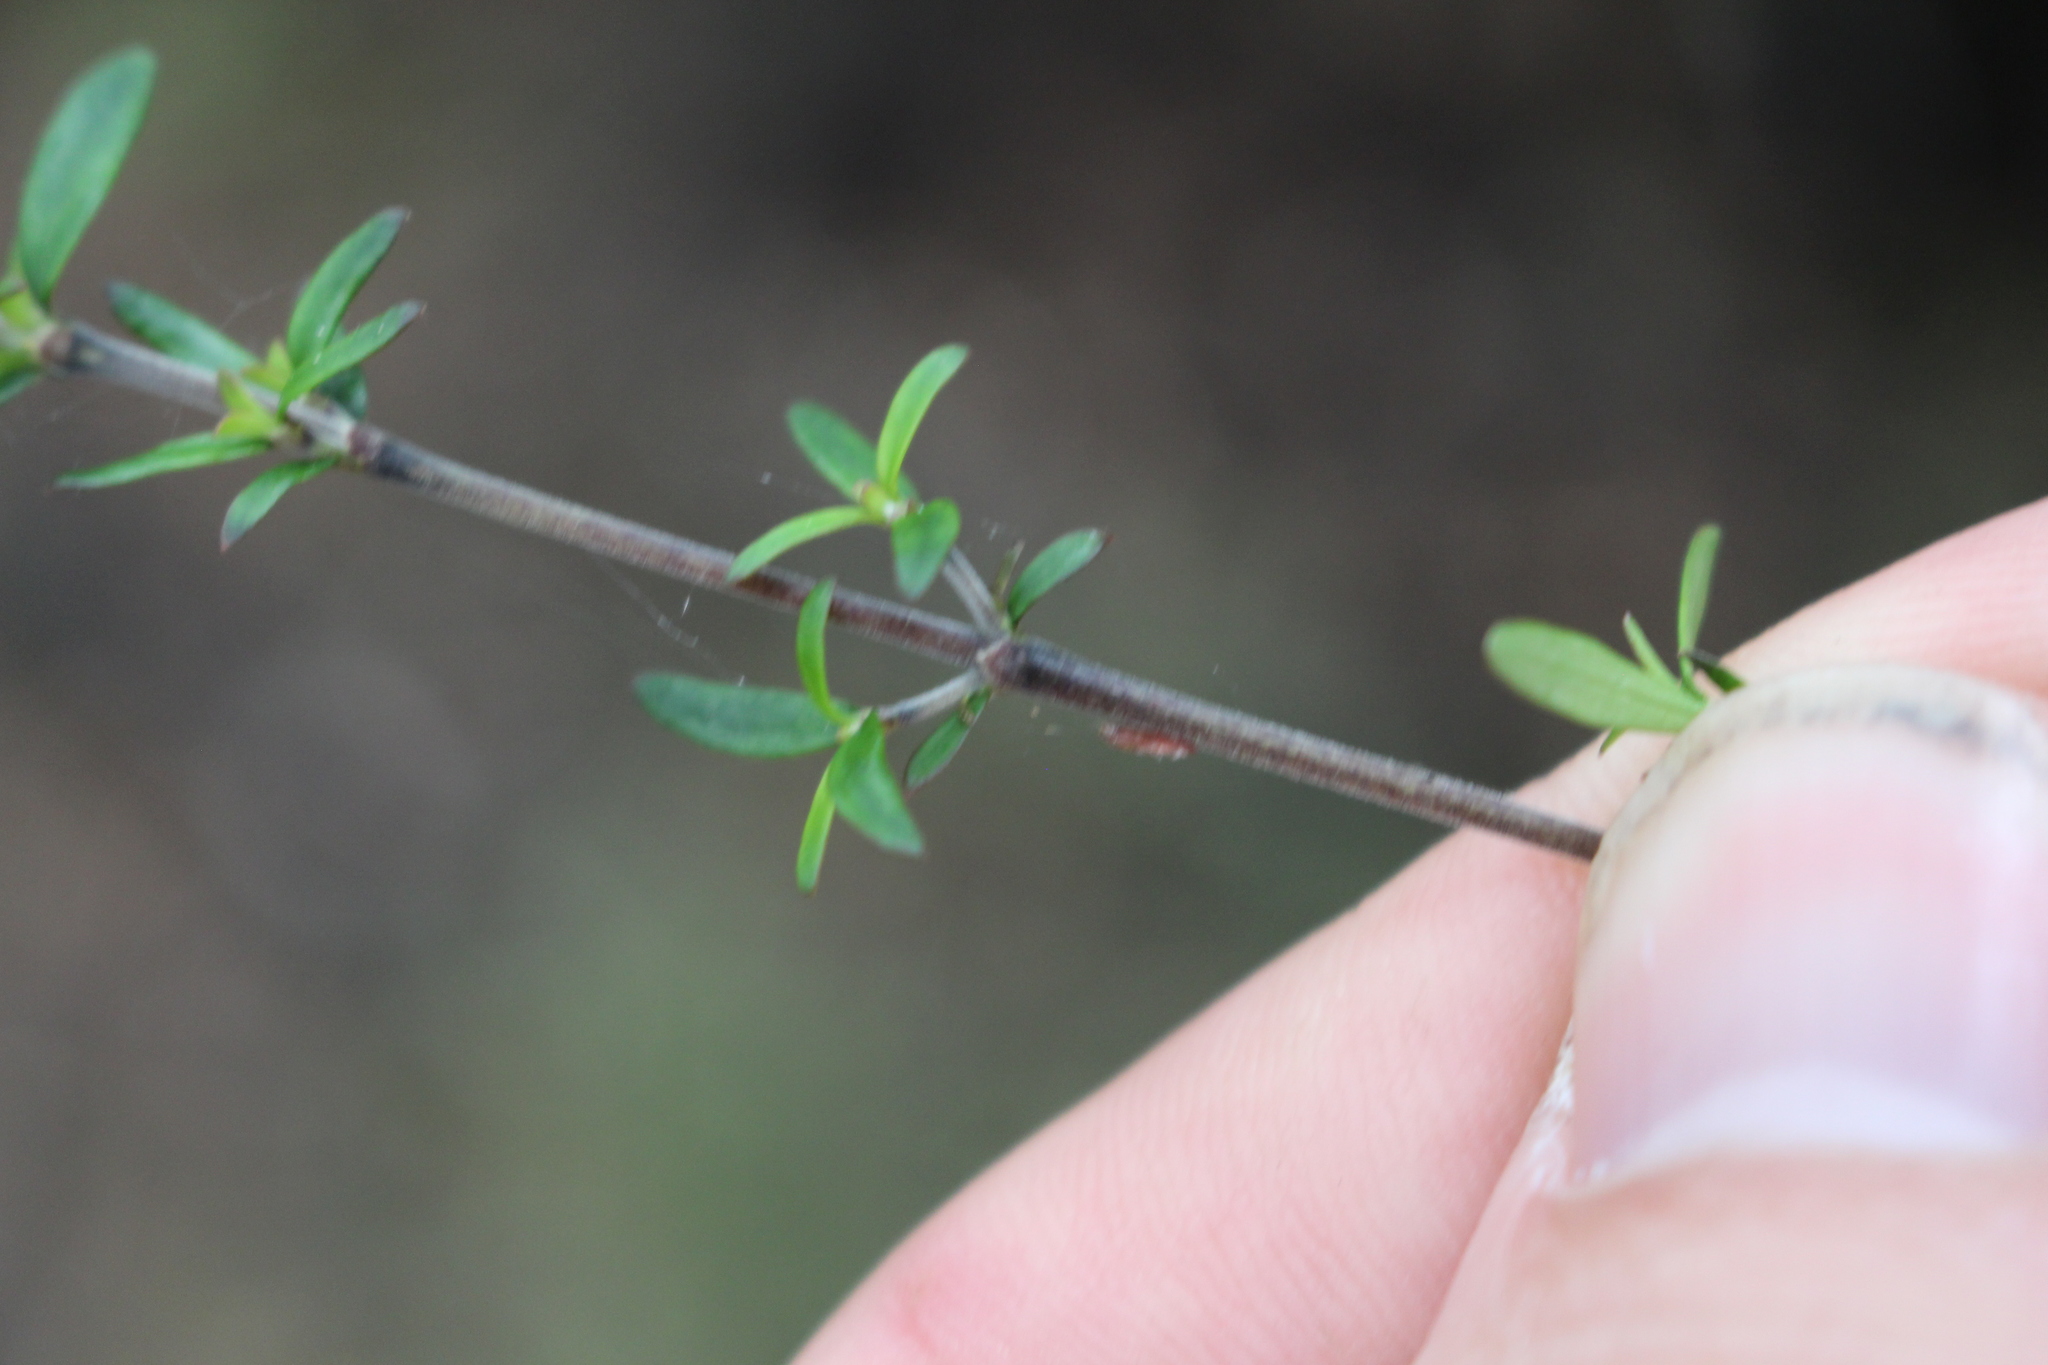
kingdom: Plantae
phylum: Tracheophyta
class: Magnoliopsida
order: Gentianales
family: Rubiaceae
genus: Coprosma
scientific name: Coprosma microcarpa
